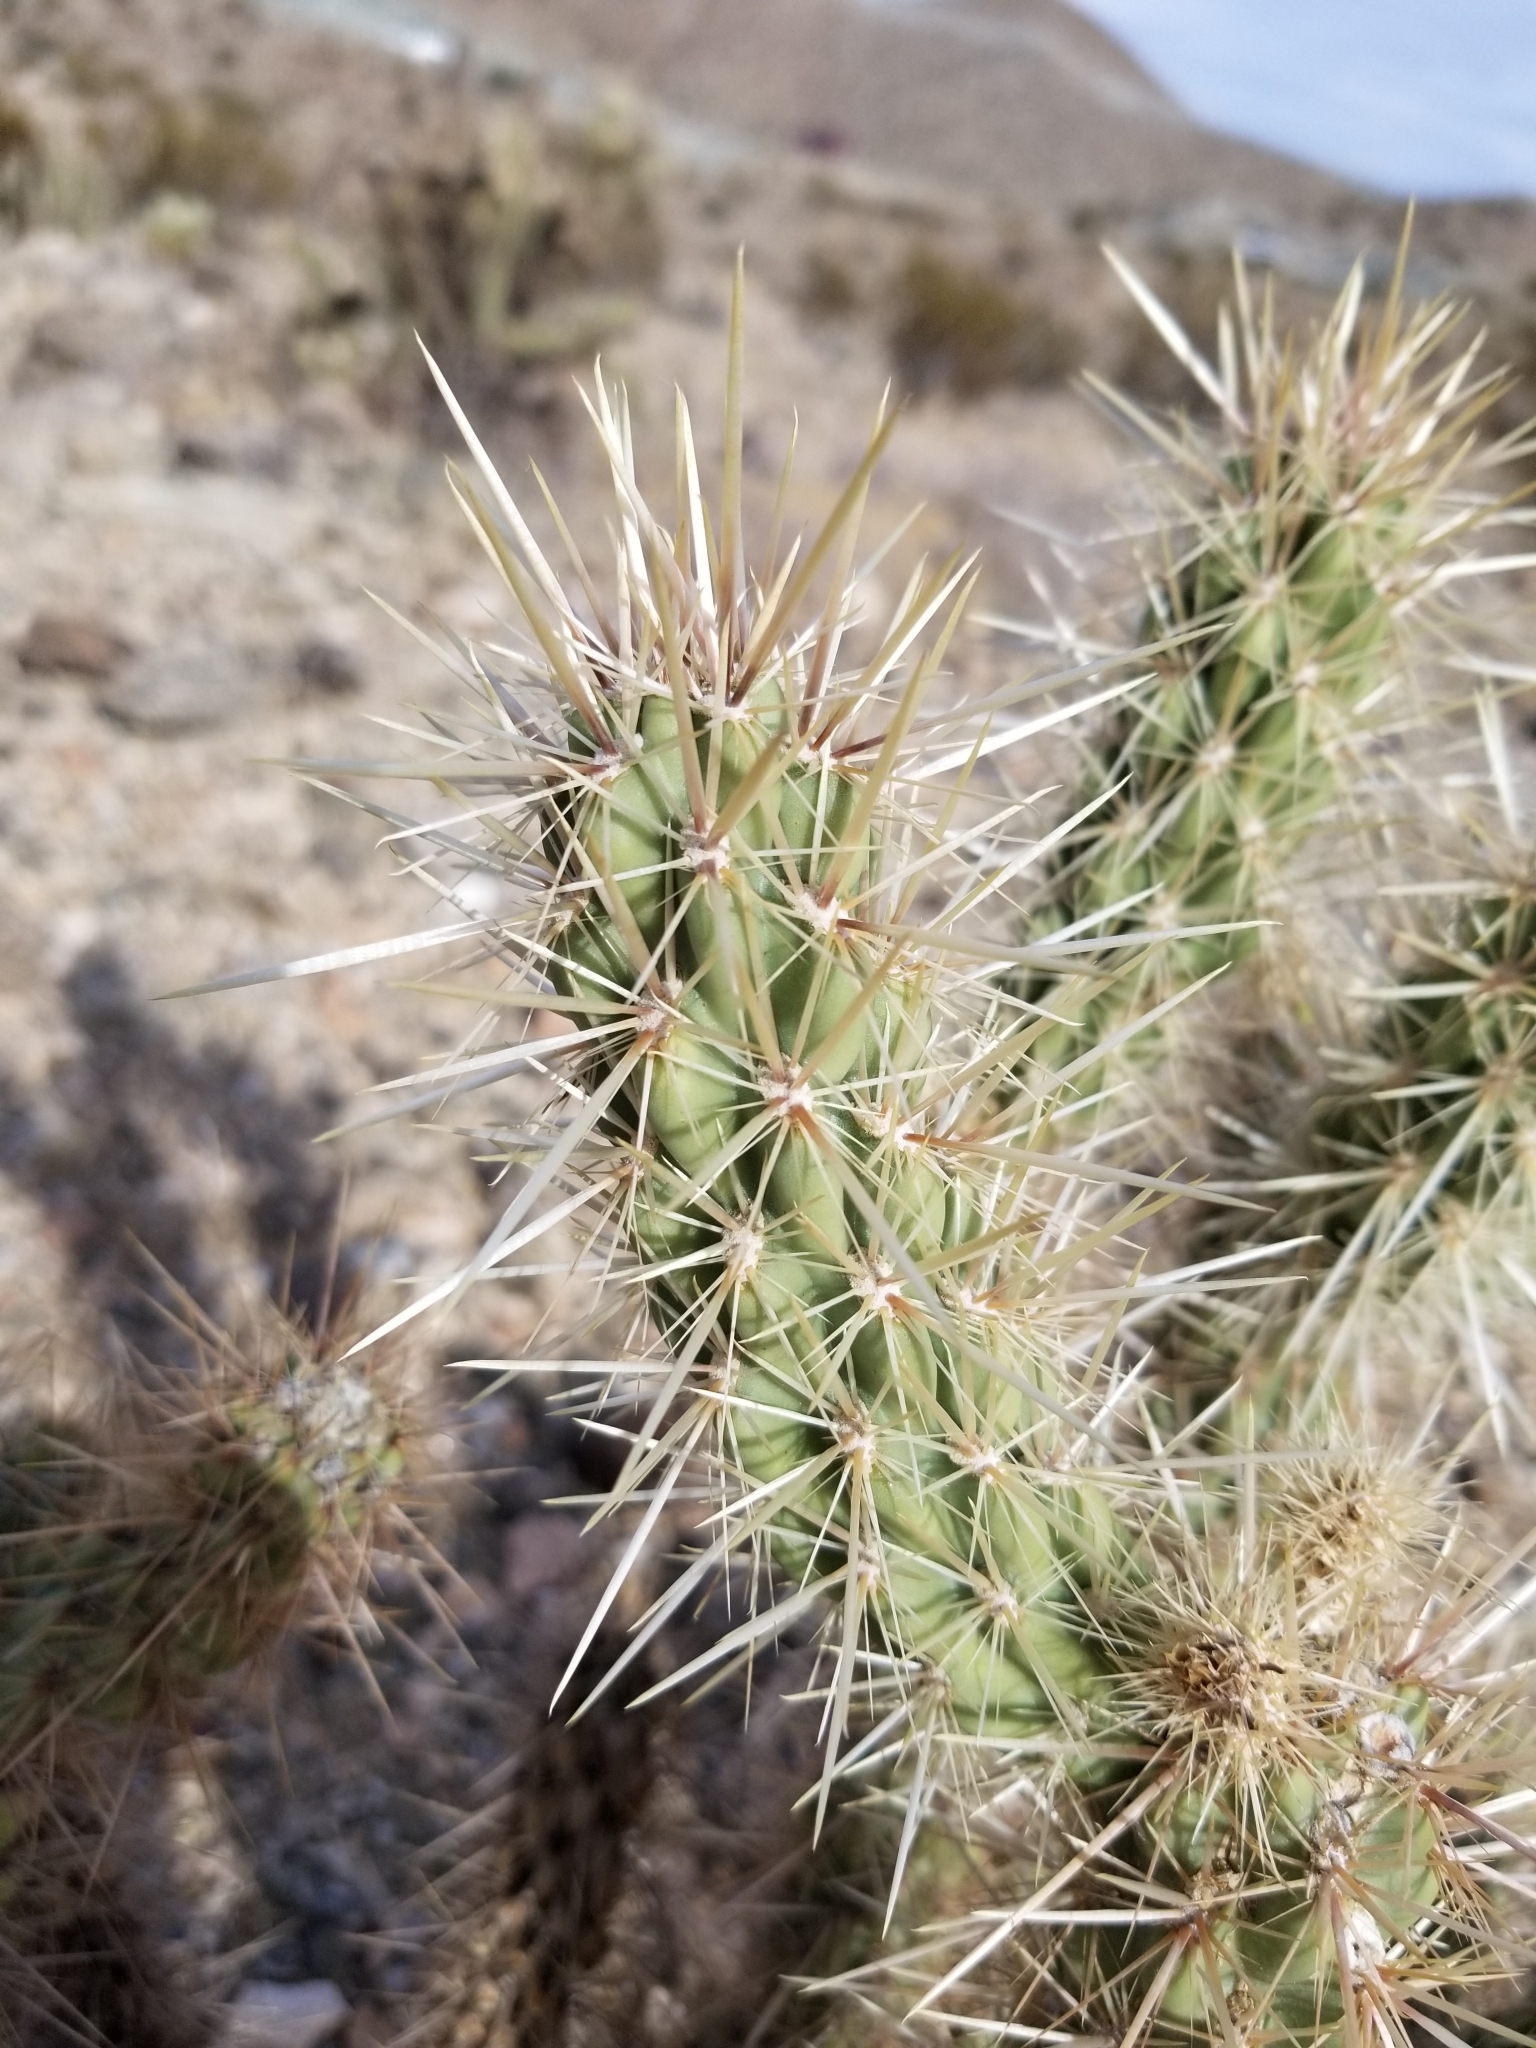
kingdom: Plantae
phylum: Tracheophyta
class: Magnoliopsida
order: Caryophyllales
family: Cactaceae
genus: Cylindropuntia
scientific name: Cylindropuntia ganderi
